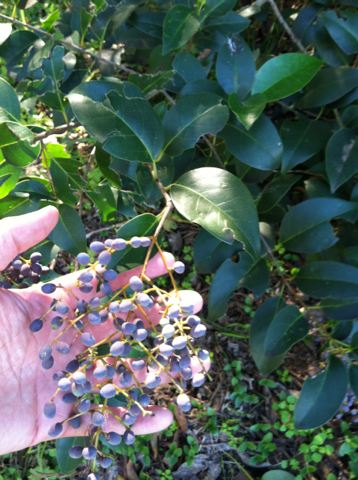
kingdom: Plantae
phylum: Tracheophyta
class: Magnoliopsida
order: Lamiales
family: Oleaceae
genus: Ligustrum
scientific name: Ligustrum lucidum
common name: Glossy privet
